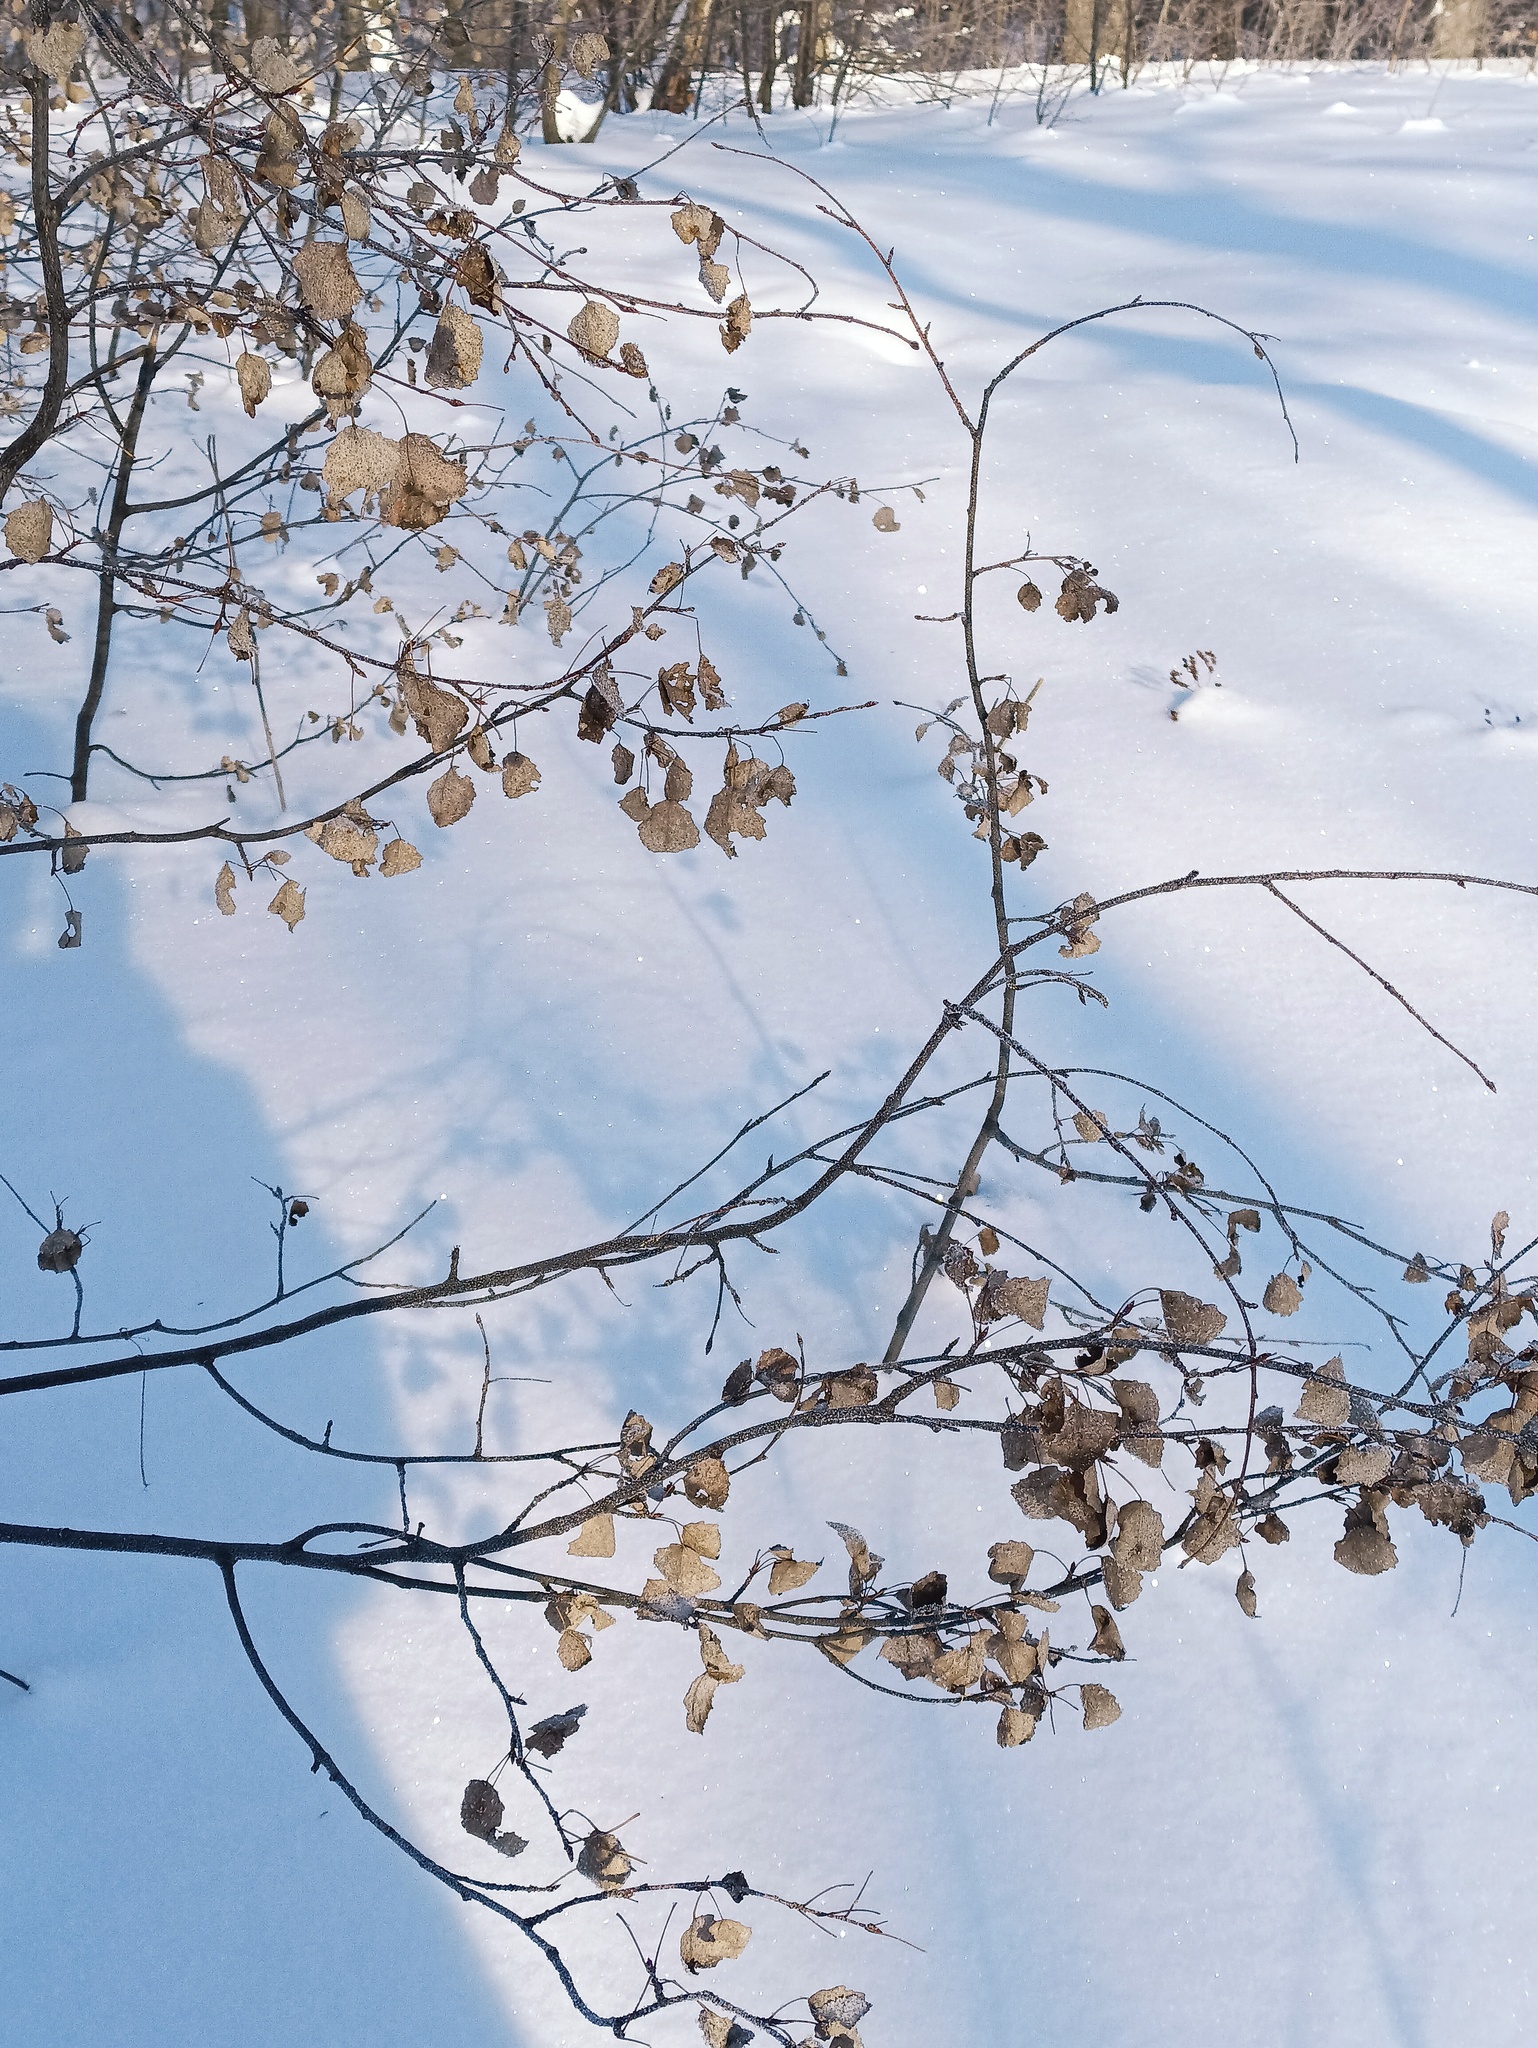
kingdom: Plantae
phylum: Tracheophyta
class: Magnoliopsida
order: Malpighiales
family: Salicaceae
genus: Populus
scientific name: Populus tremula
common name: European aspen
